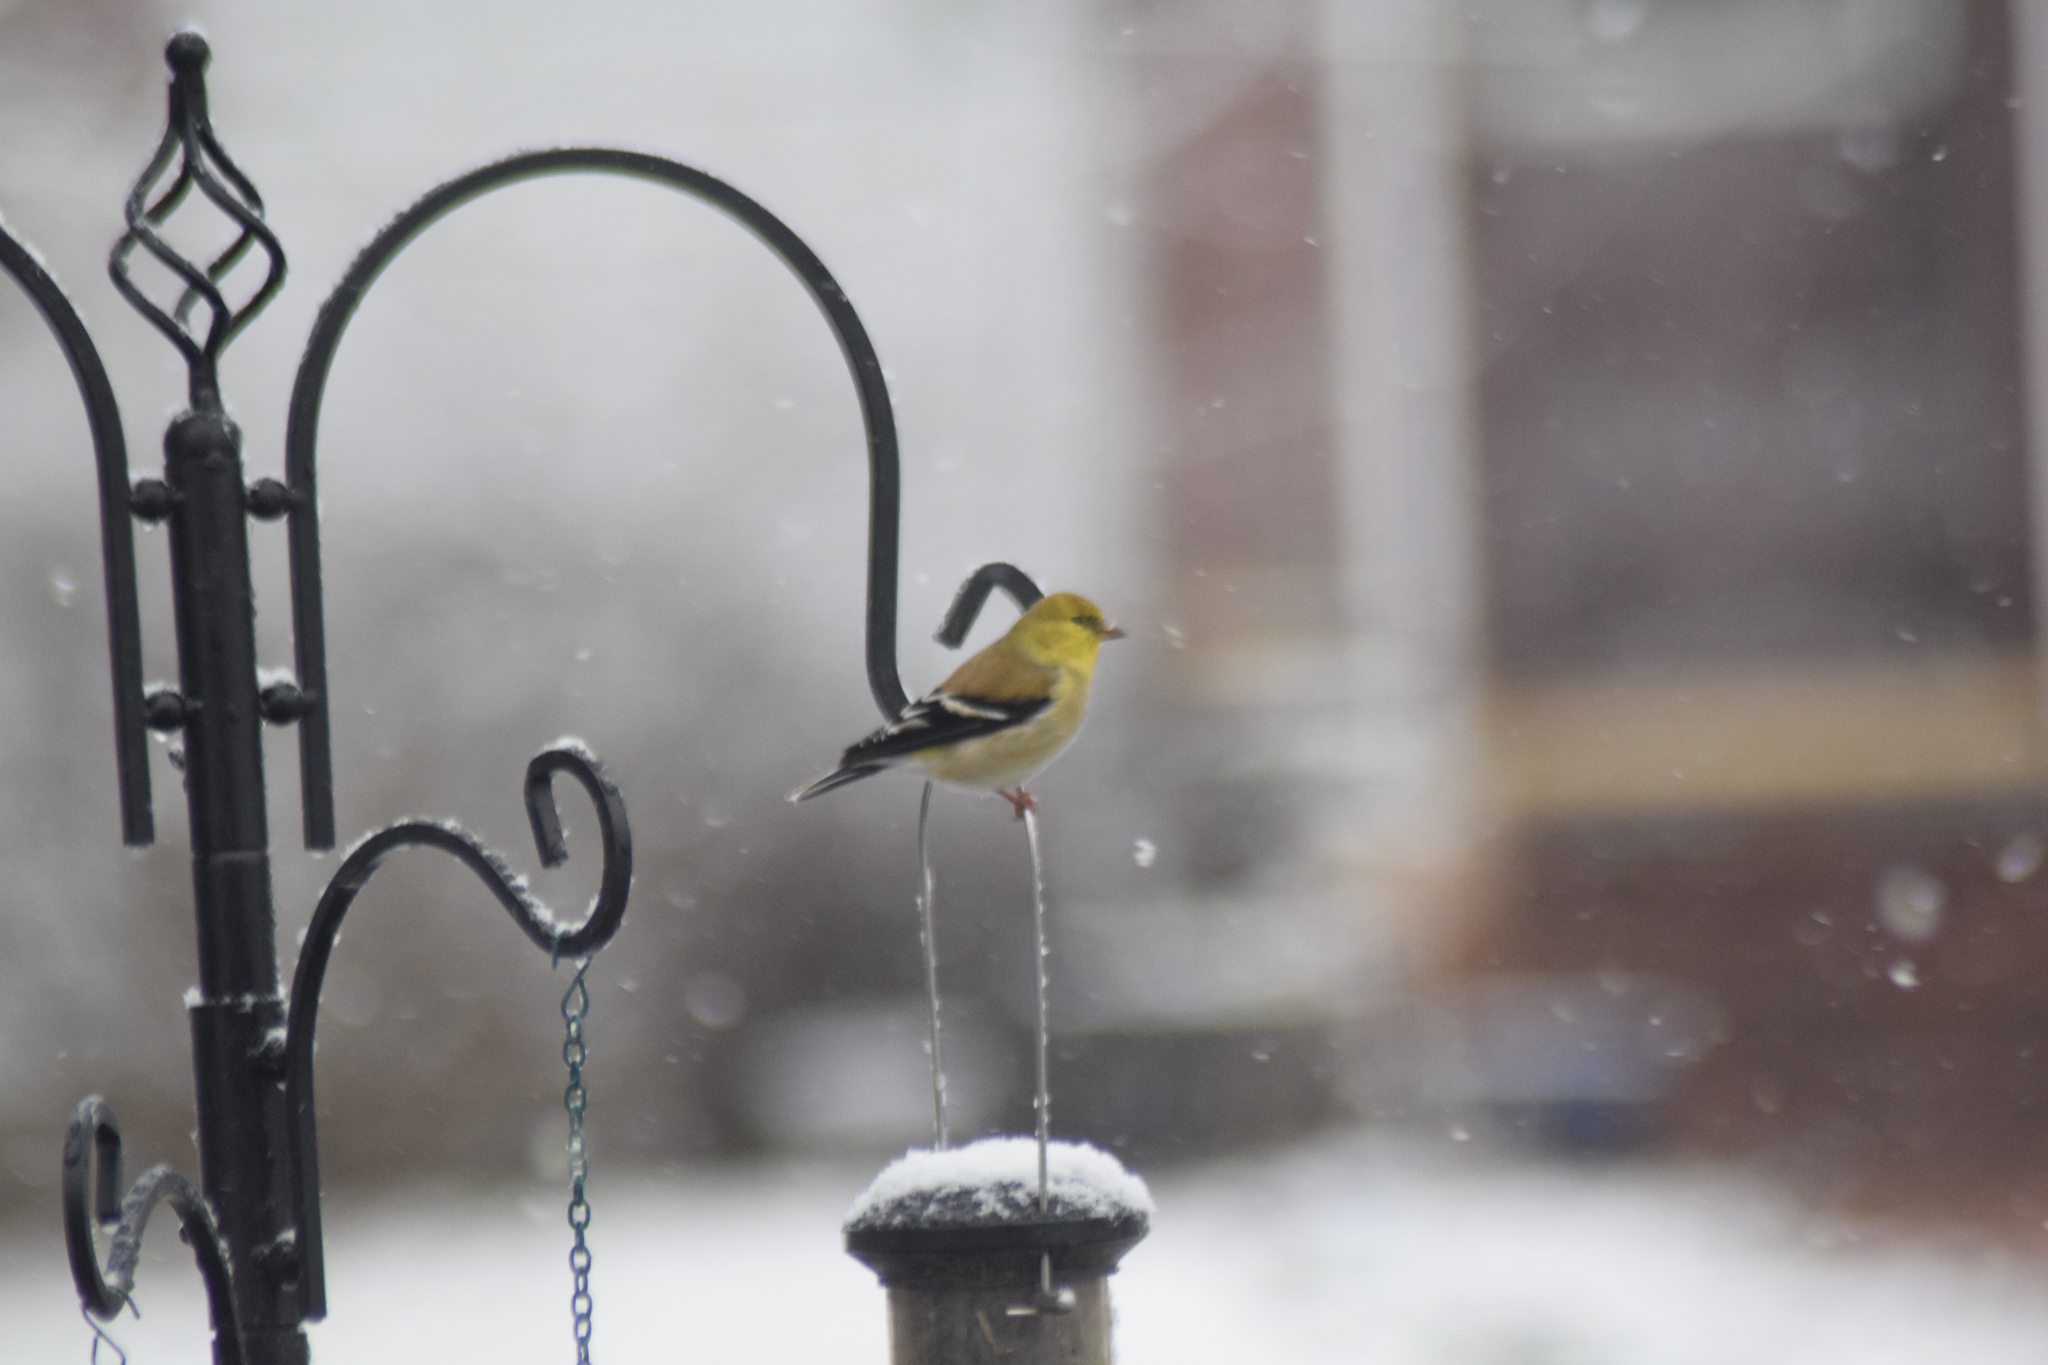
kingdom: Animalia
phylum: Chordata
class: Aves
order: Passeriformes
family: Fringillidae
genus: Spinus
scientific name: Spinus tristis
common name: American goldfinch
